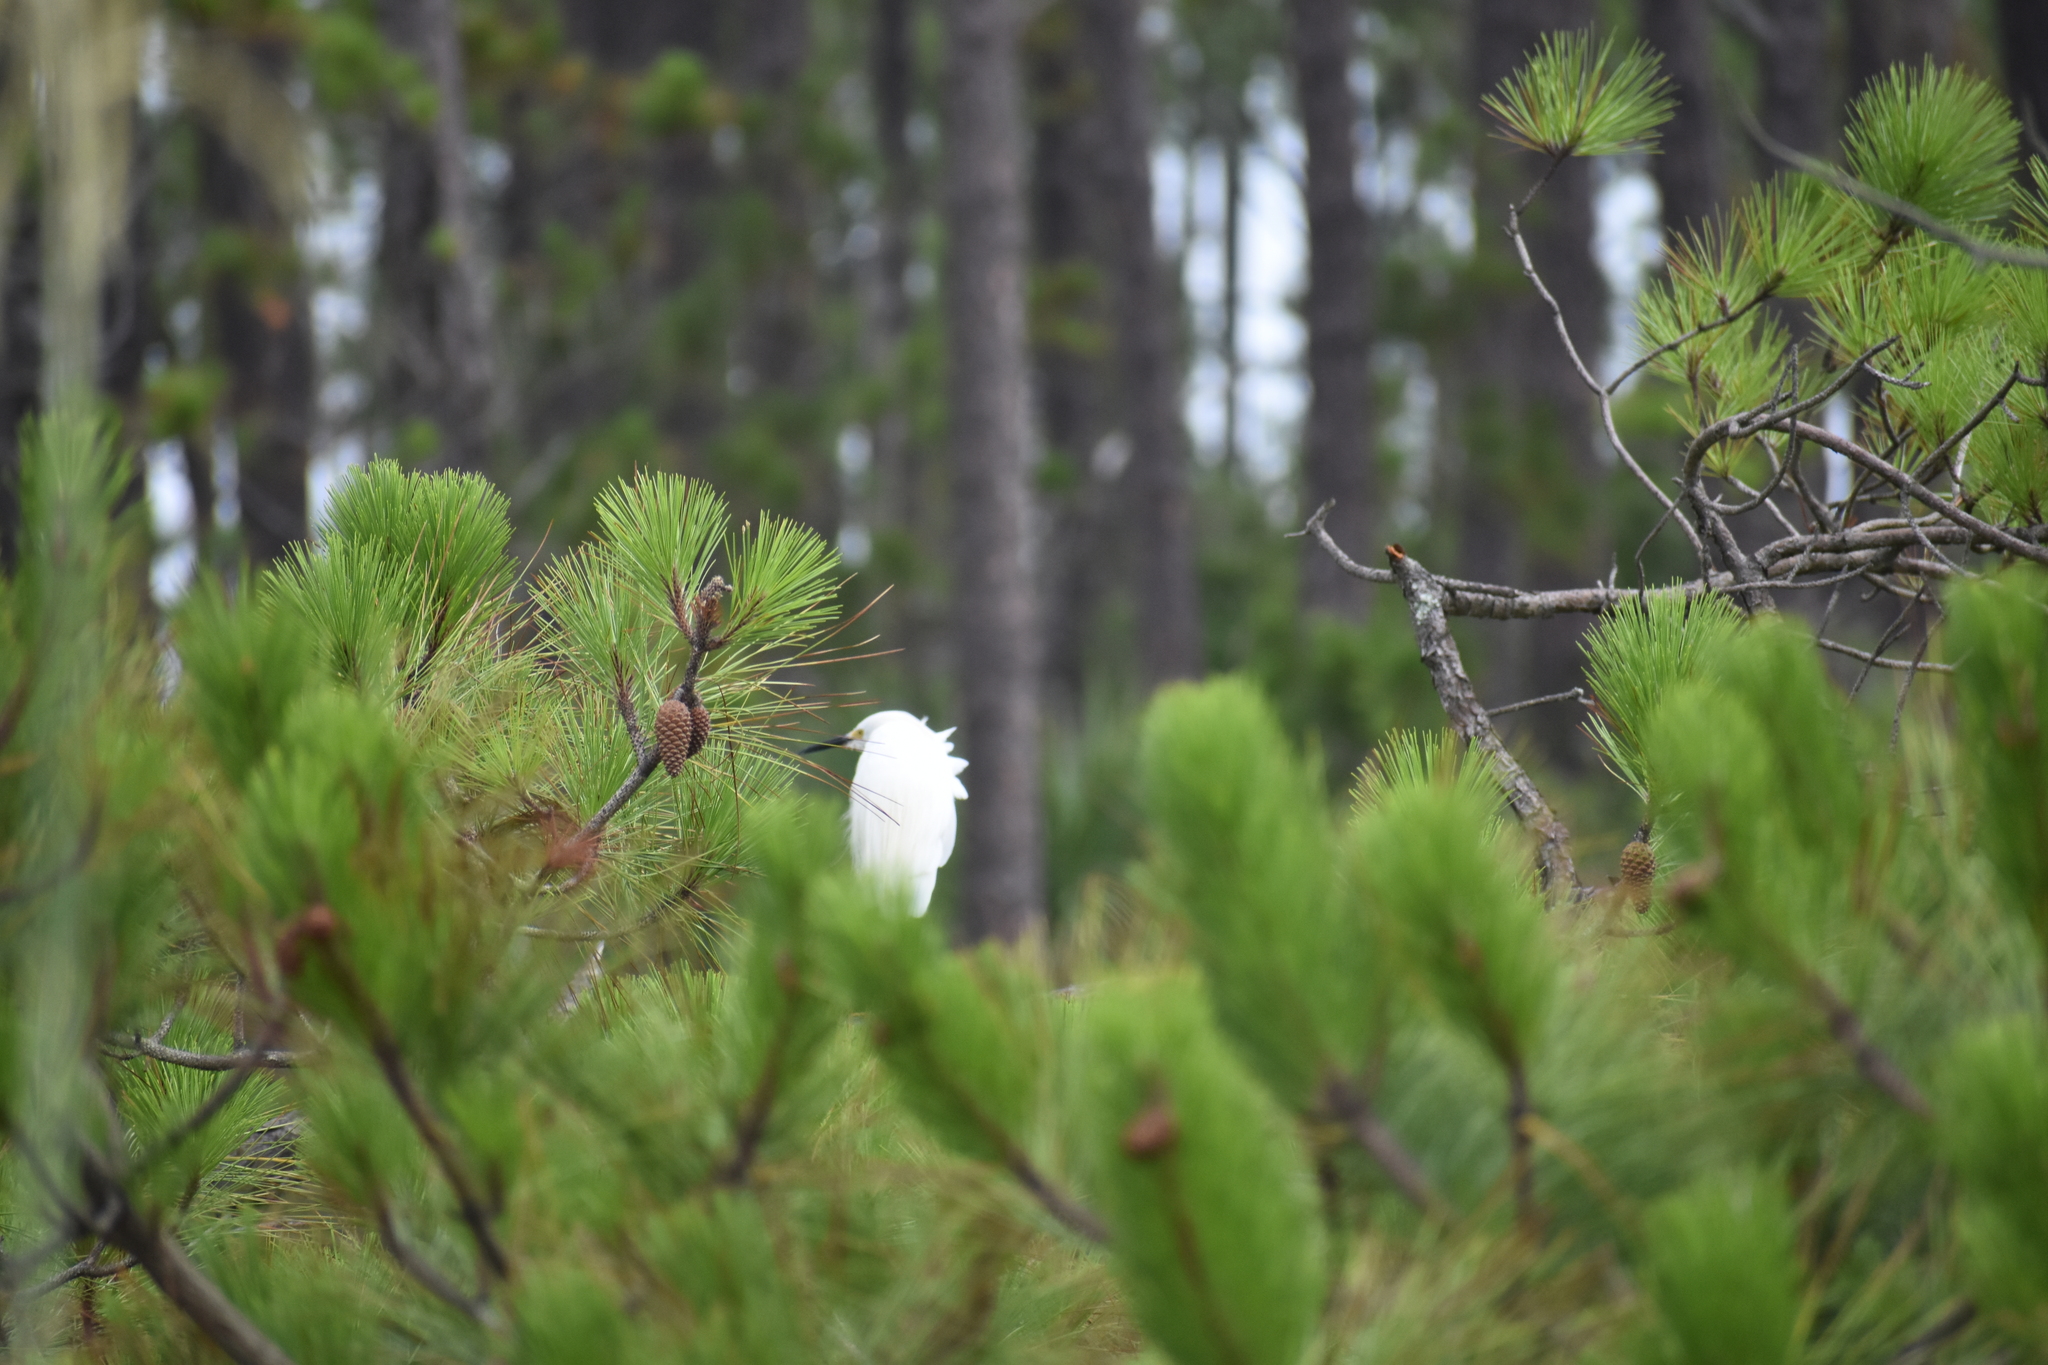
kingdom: Animalia
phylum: Chordata
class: Aves
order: Pelecaniformes
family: Ardeidae
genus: Egretta
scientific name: Egretta thula
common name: Snowy egret
